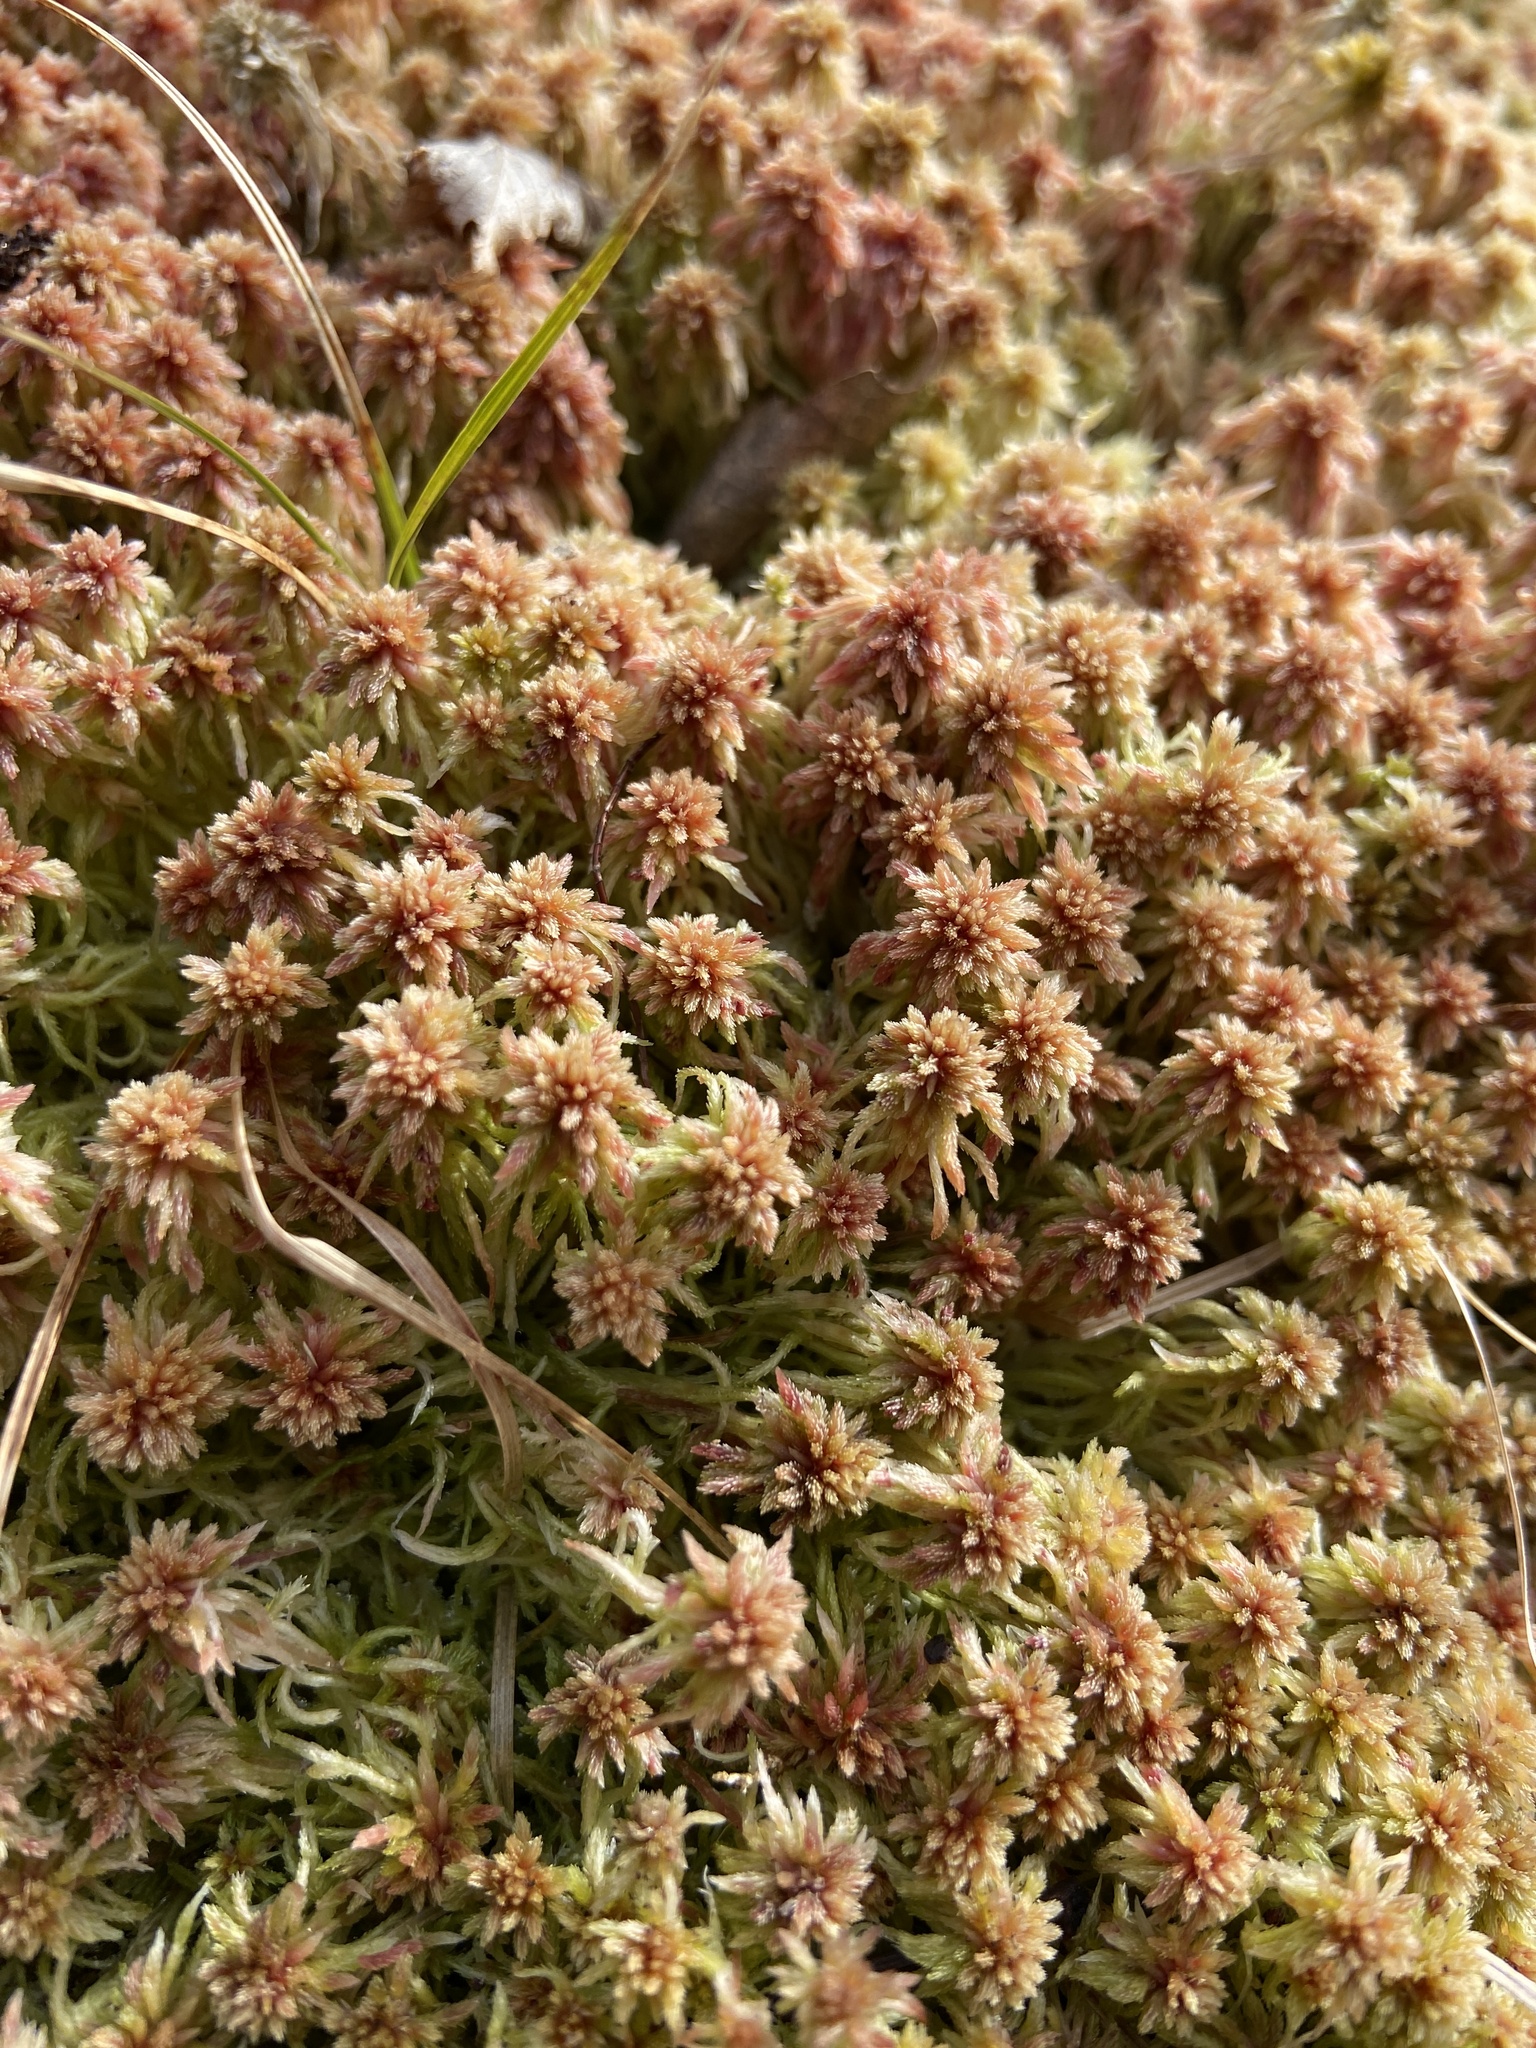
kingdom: Plantae
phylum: Bryophyta
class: Sphagnopsida
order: Sphagnales
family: Sphagnaceae
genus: Sphagnum
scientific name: Sphagnum russowii
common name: Russow's peat moss
